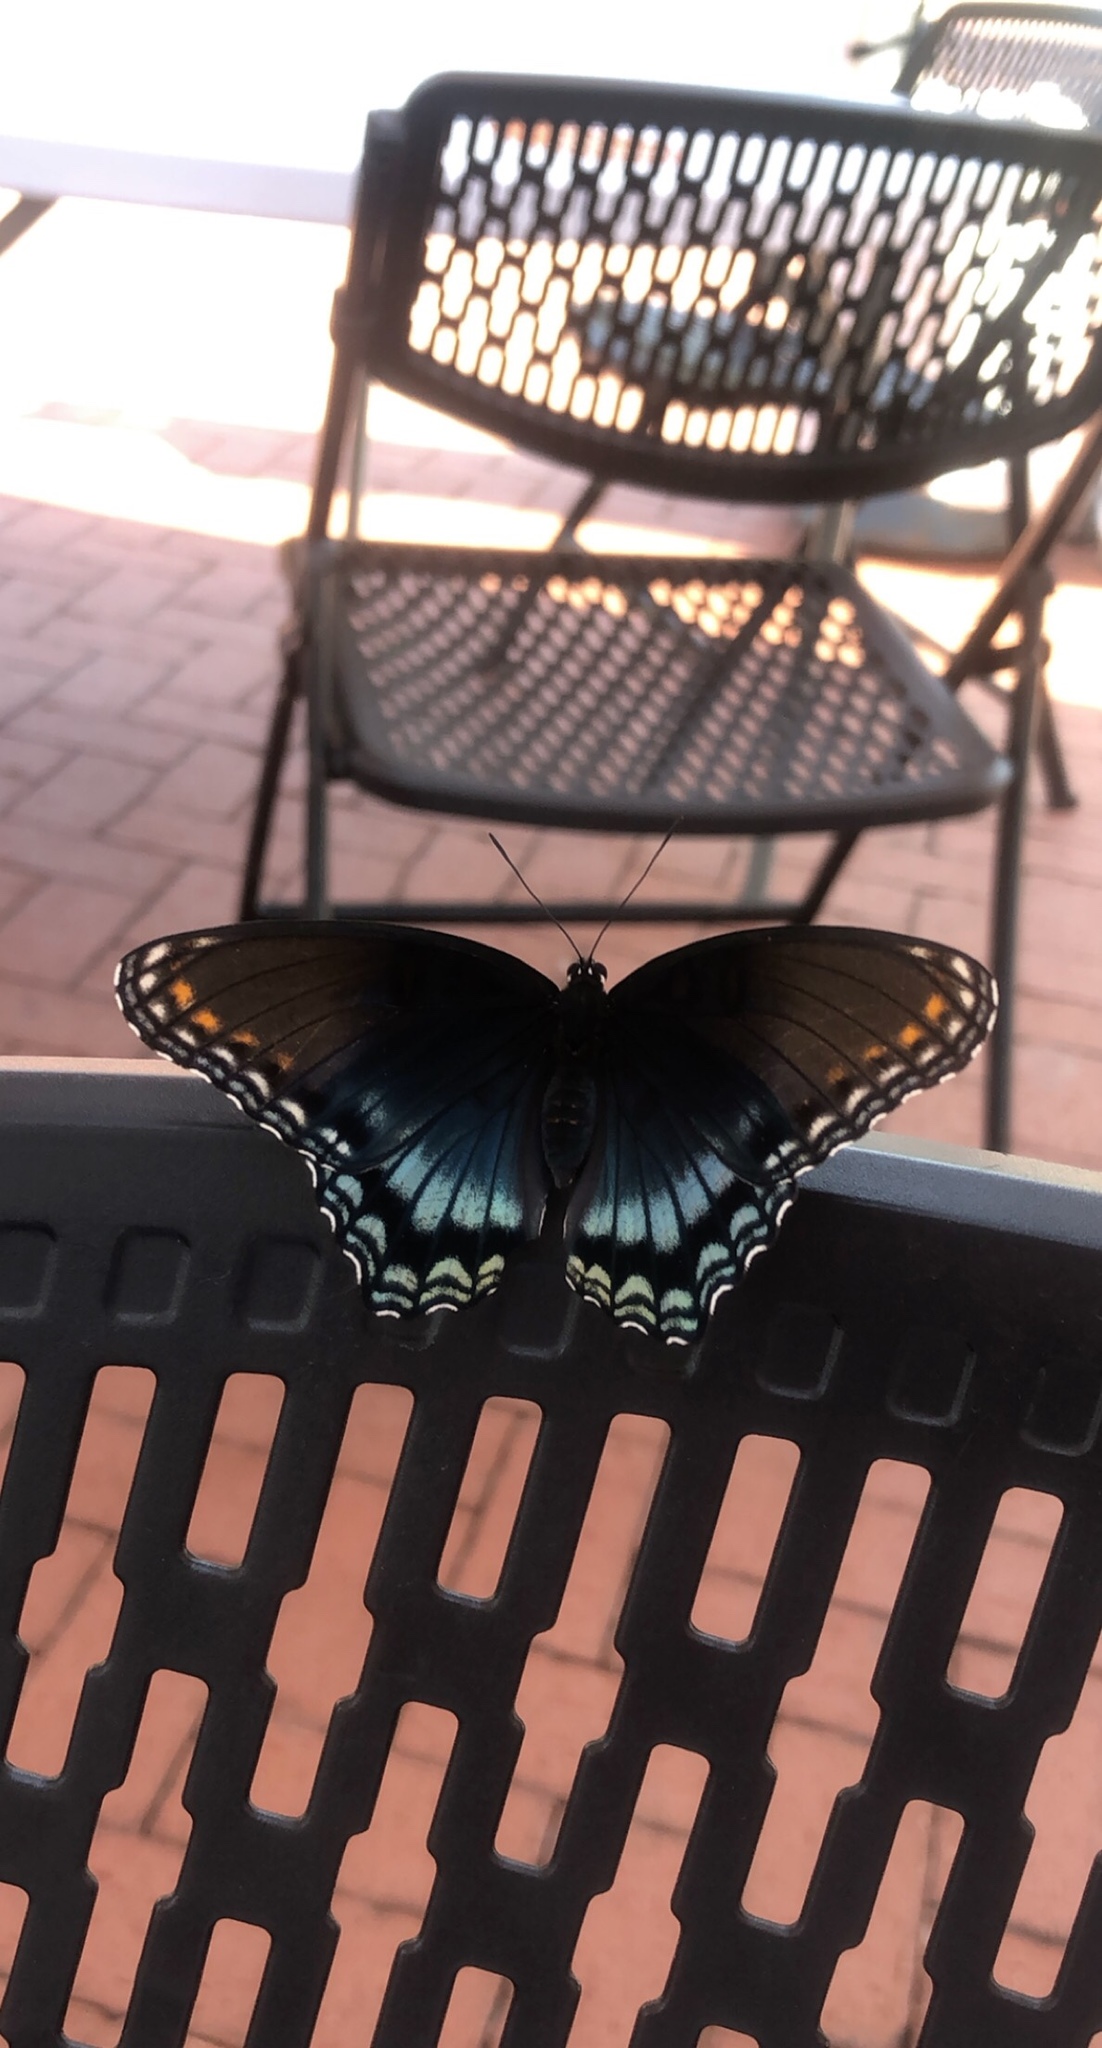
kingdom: Animalia
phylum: Arthropoda
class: Insecta
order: Lepidoptera
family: Nymphalidae
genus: Limenitis
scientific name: Limenitis astyanax
